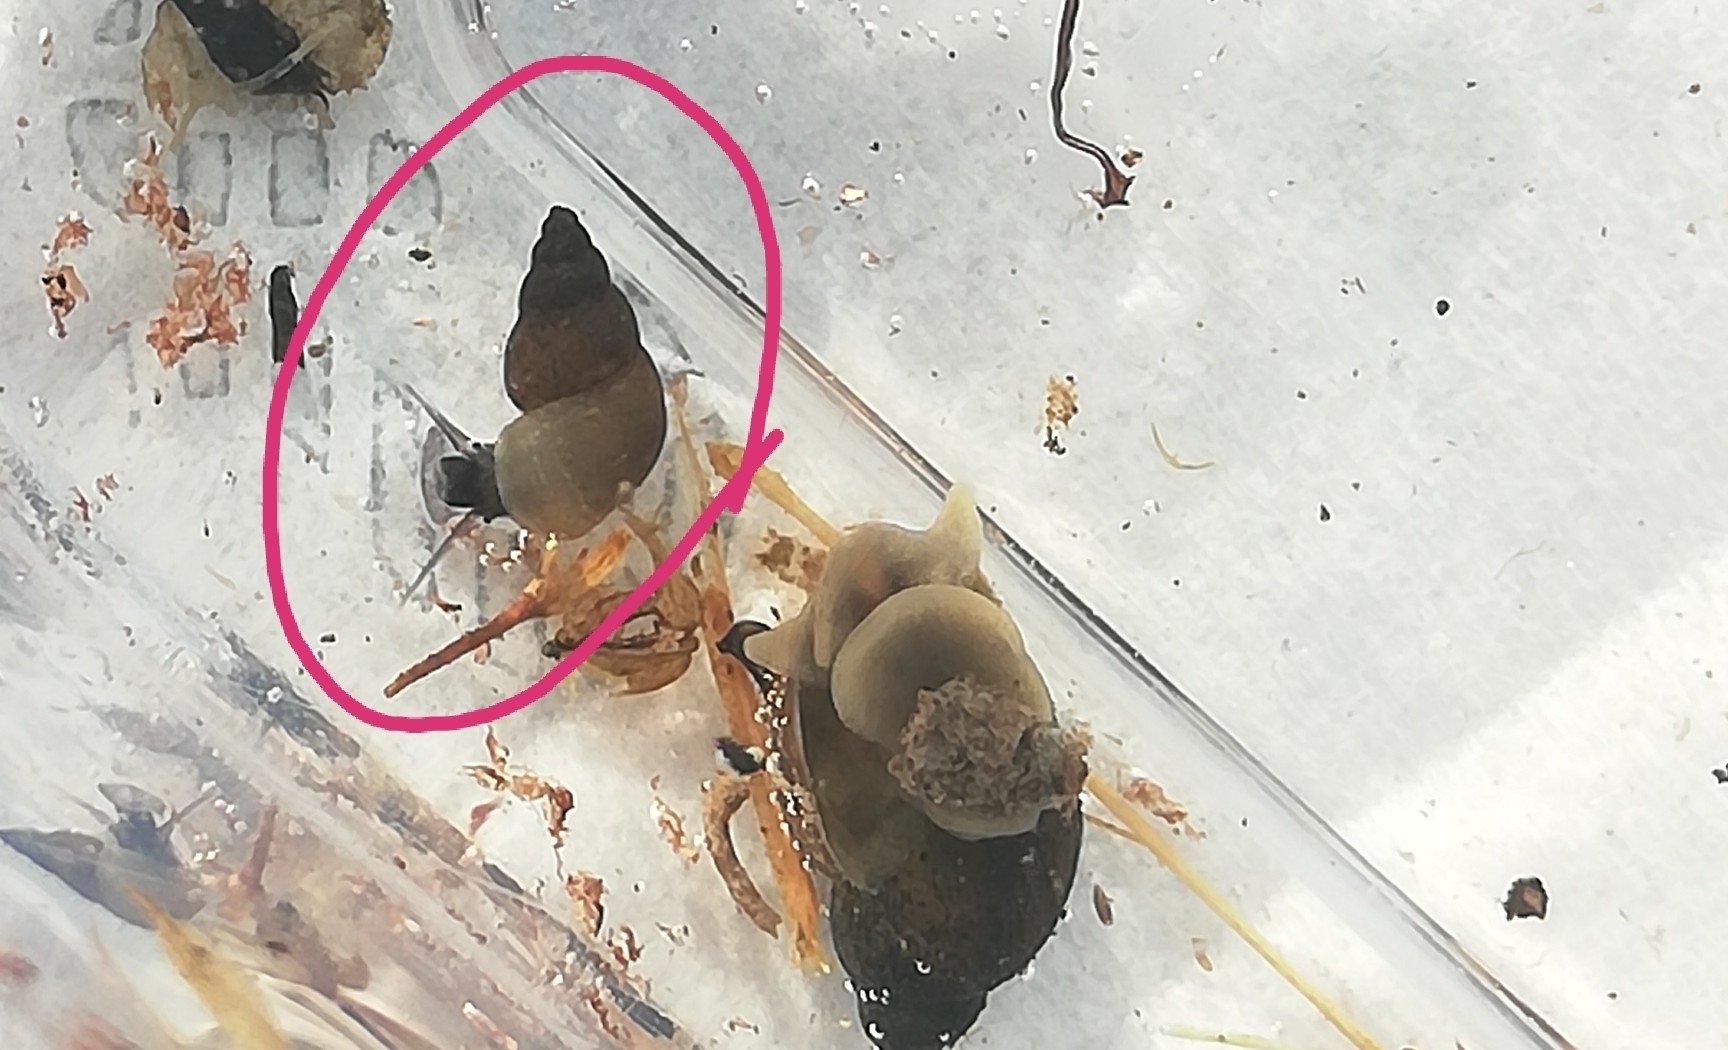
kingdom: Animalia
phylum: Mollusca
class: Gastropoda
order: Littorinimorpha
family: Tateidae
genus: Potamopyrgus
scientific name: Potamopyrgus antipodarum
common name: Jenkins' spire snail
